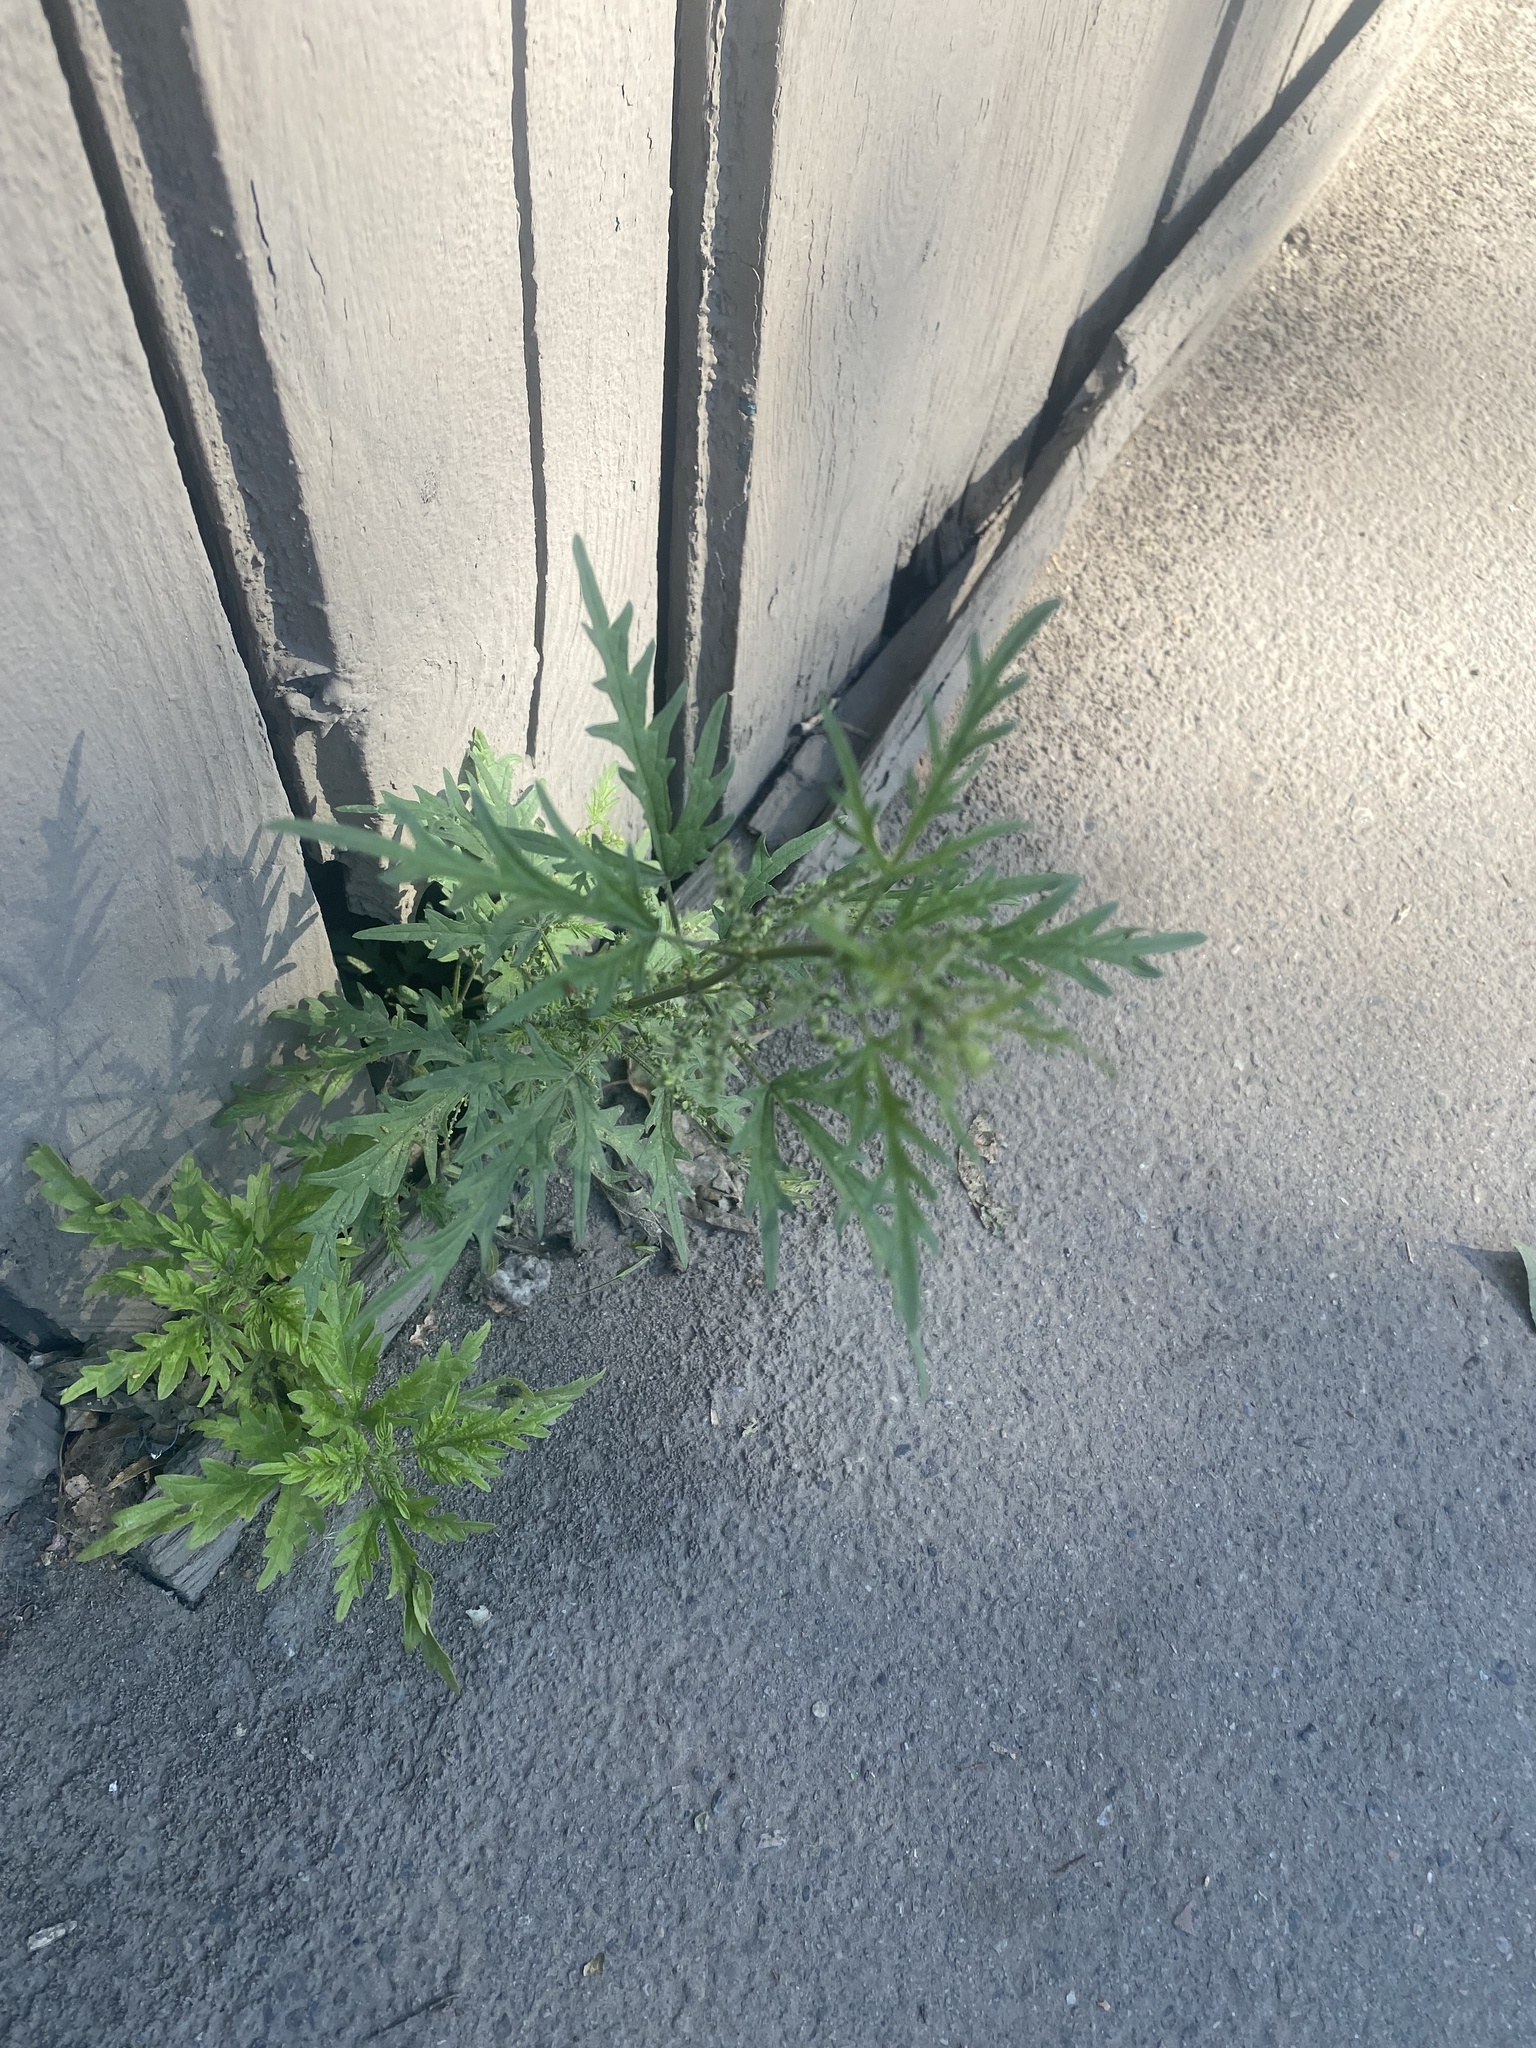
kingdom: Plantae
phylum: Tracheophyta
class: Magnoliopsida
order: Rosales
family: Urticaceae
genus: Urtica
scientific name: Urtica cannabina
